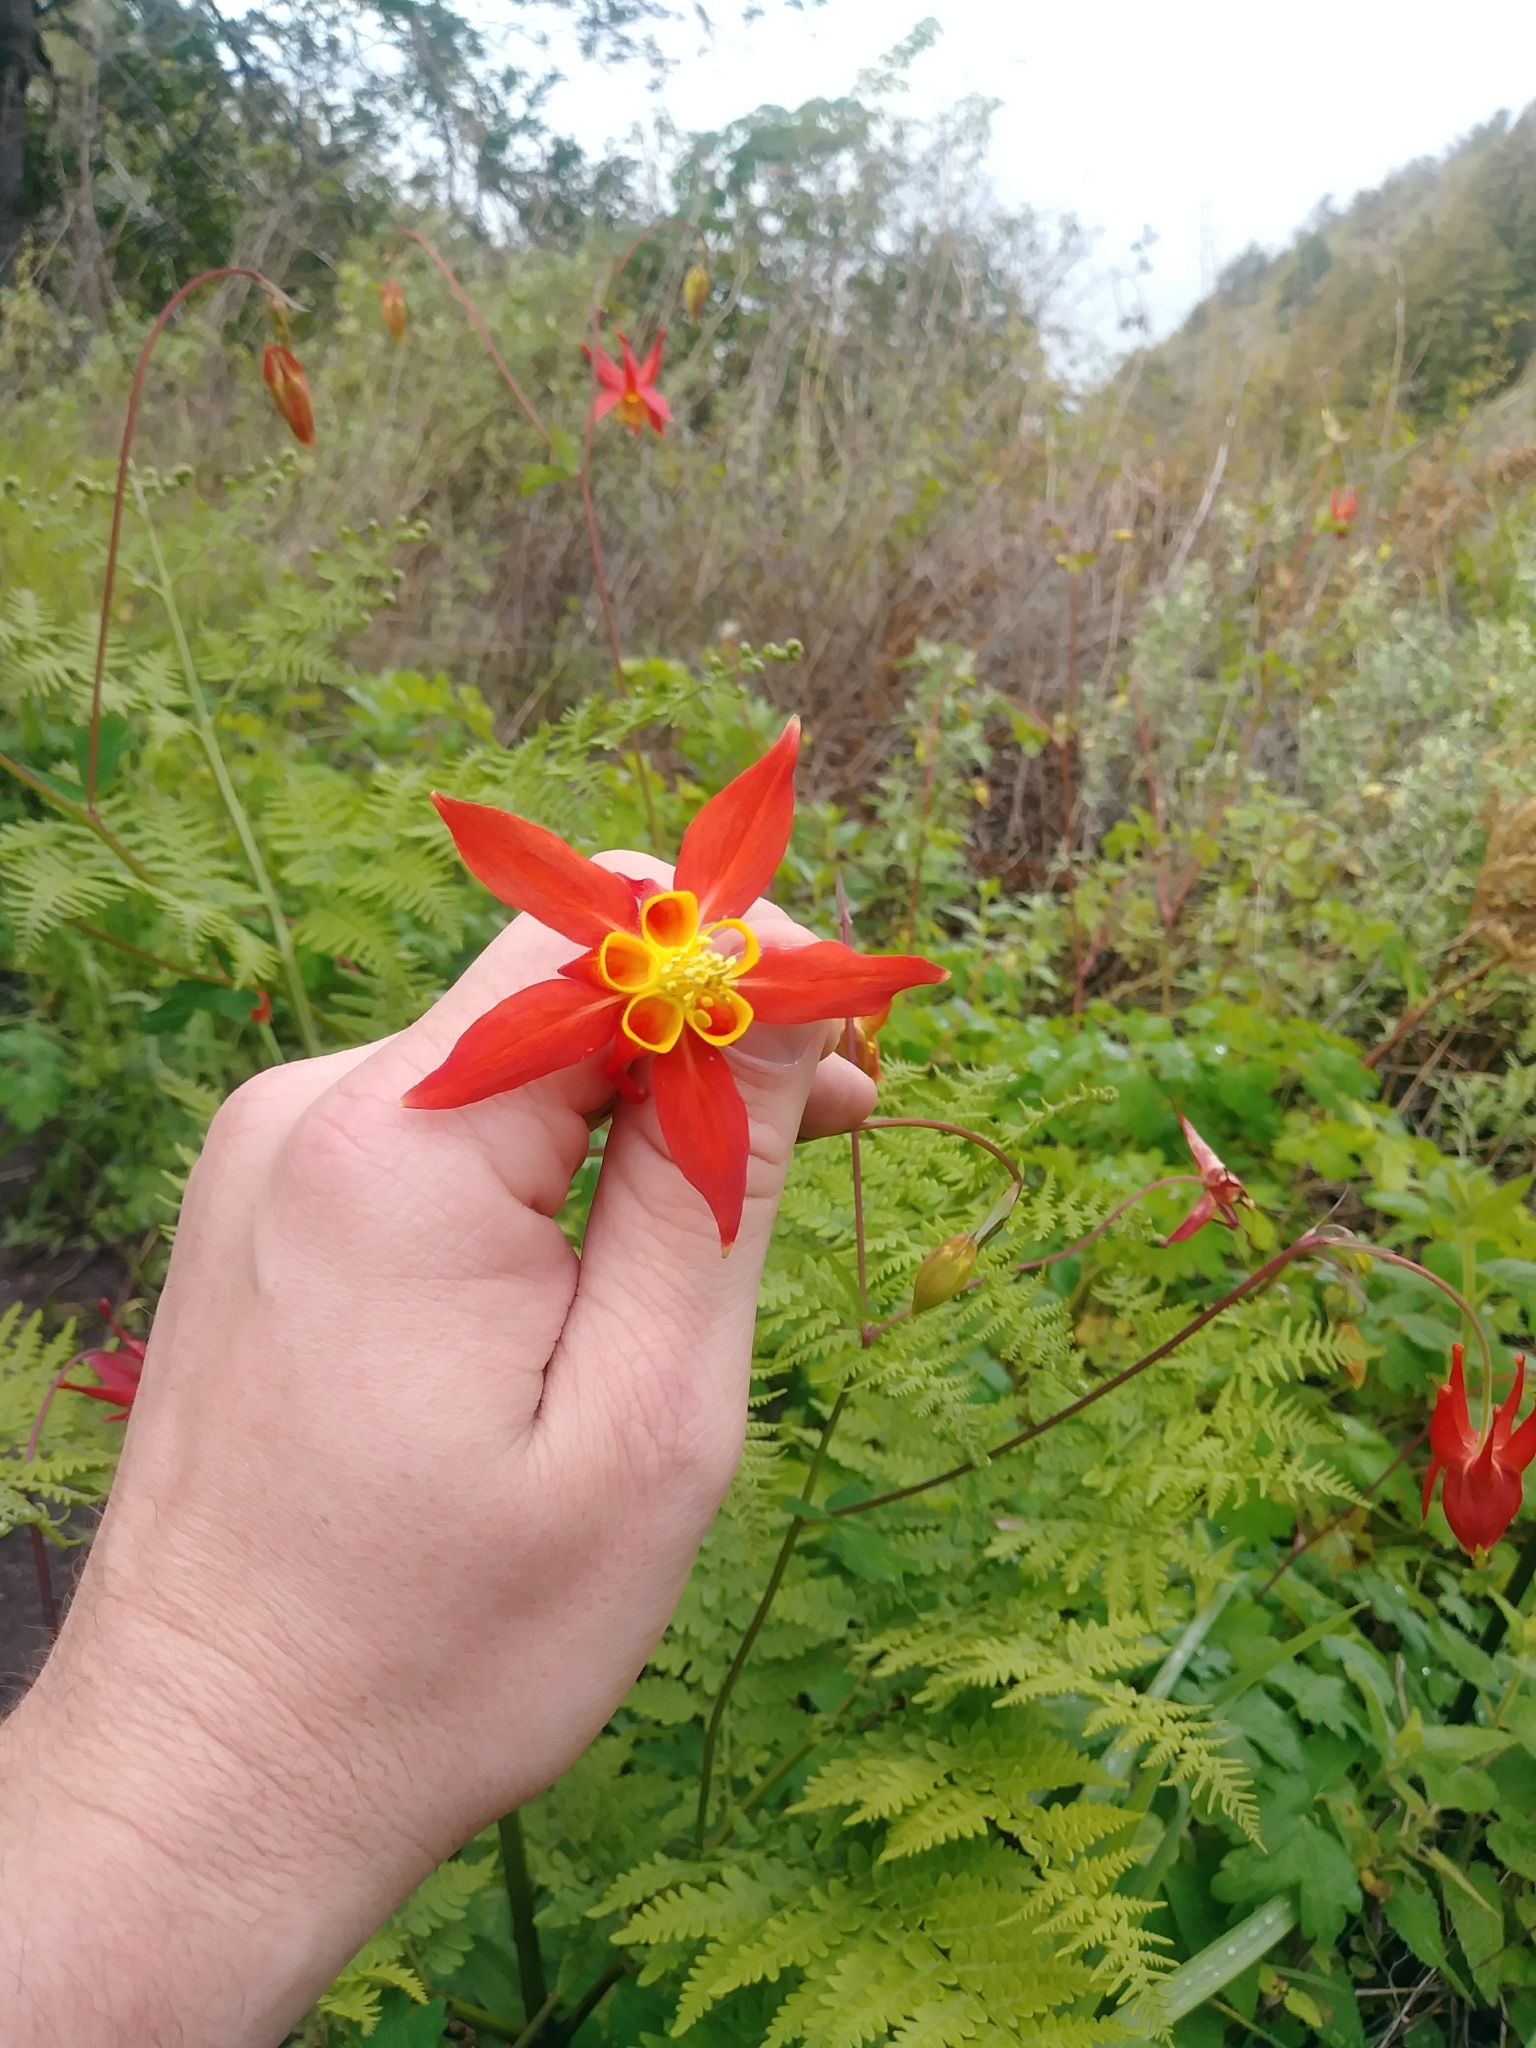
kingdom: Plantae
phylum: Tracheophyta
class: Magnoliopsida
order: Ranunculales
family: Ranunculaceae
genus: Aquilegia
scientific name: Aquilegia formosa
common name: Sitka columbine
